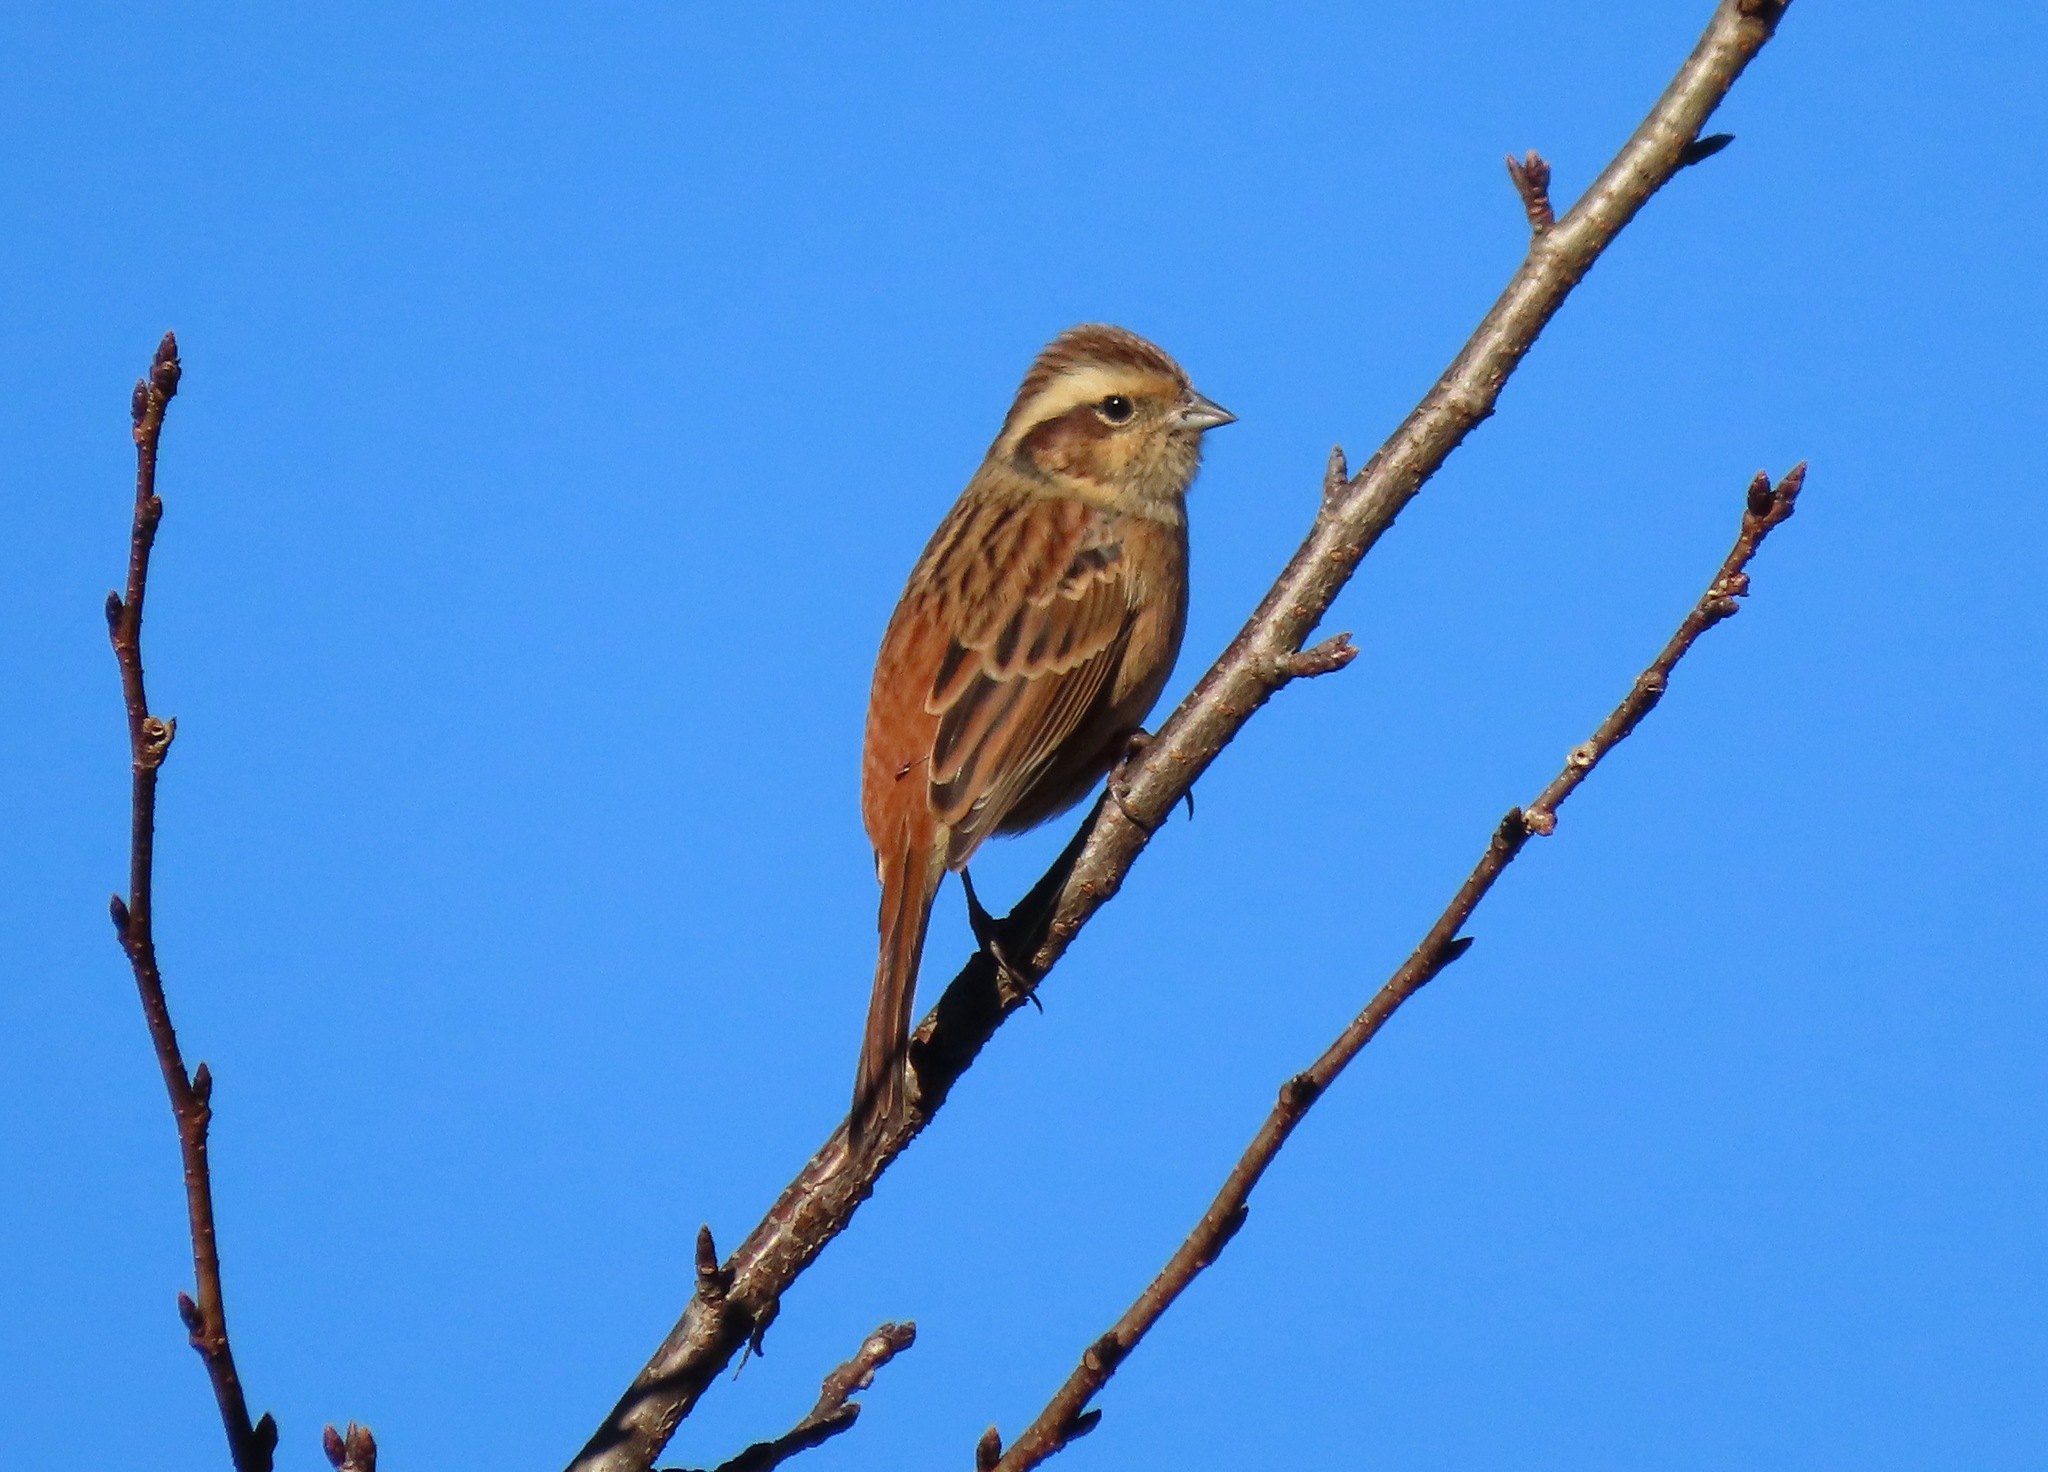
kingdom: Animalia
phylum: Chordata
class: Aves
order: Passeriformes
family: Emberizidae
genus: Emberiza
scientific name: Emberiza cioides
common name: Meadow bunting
